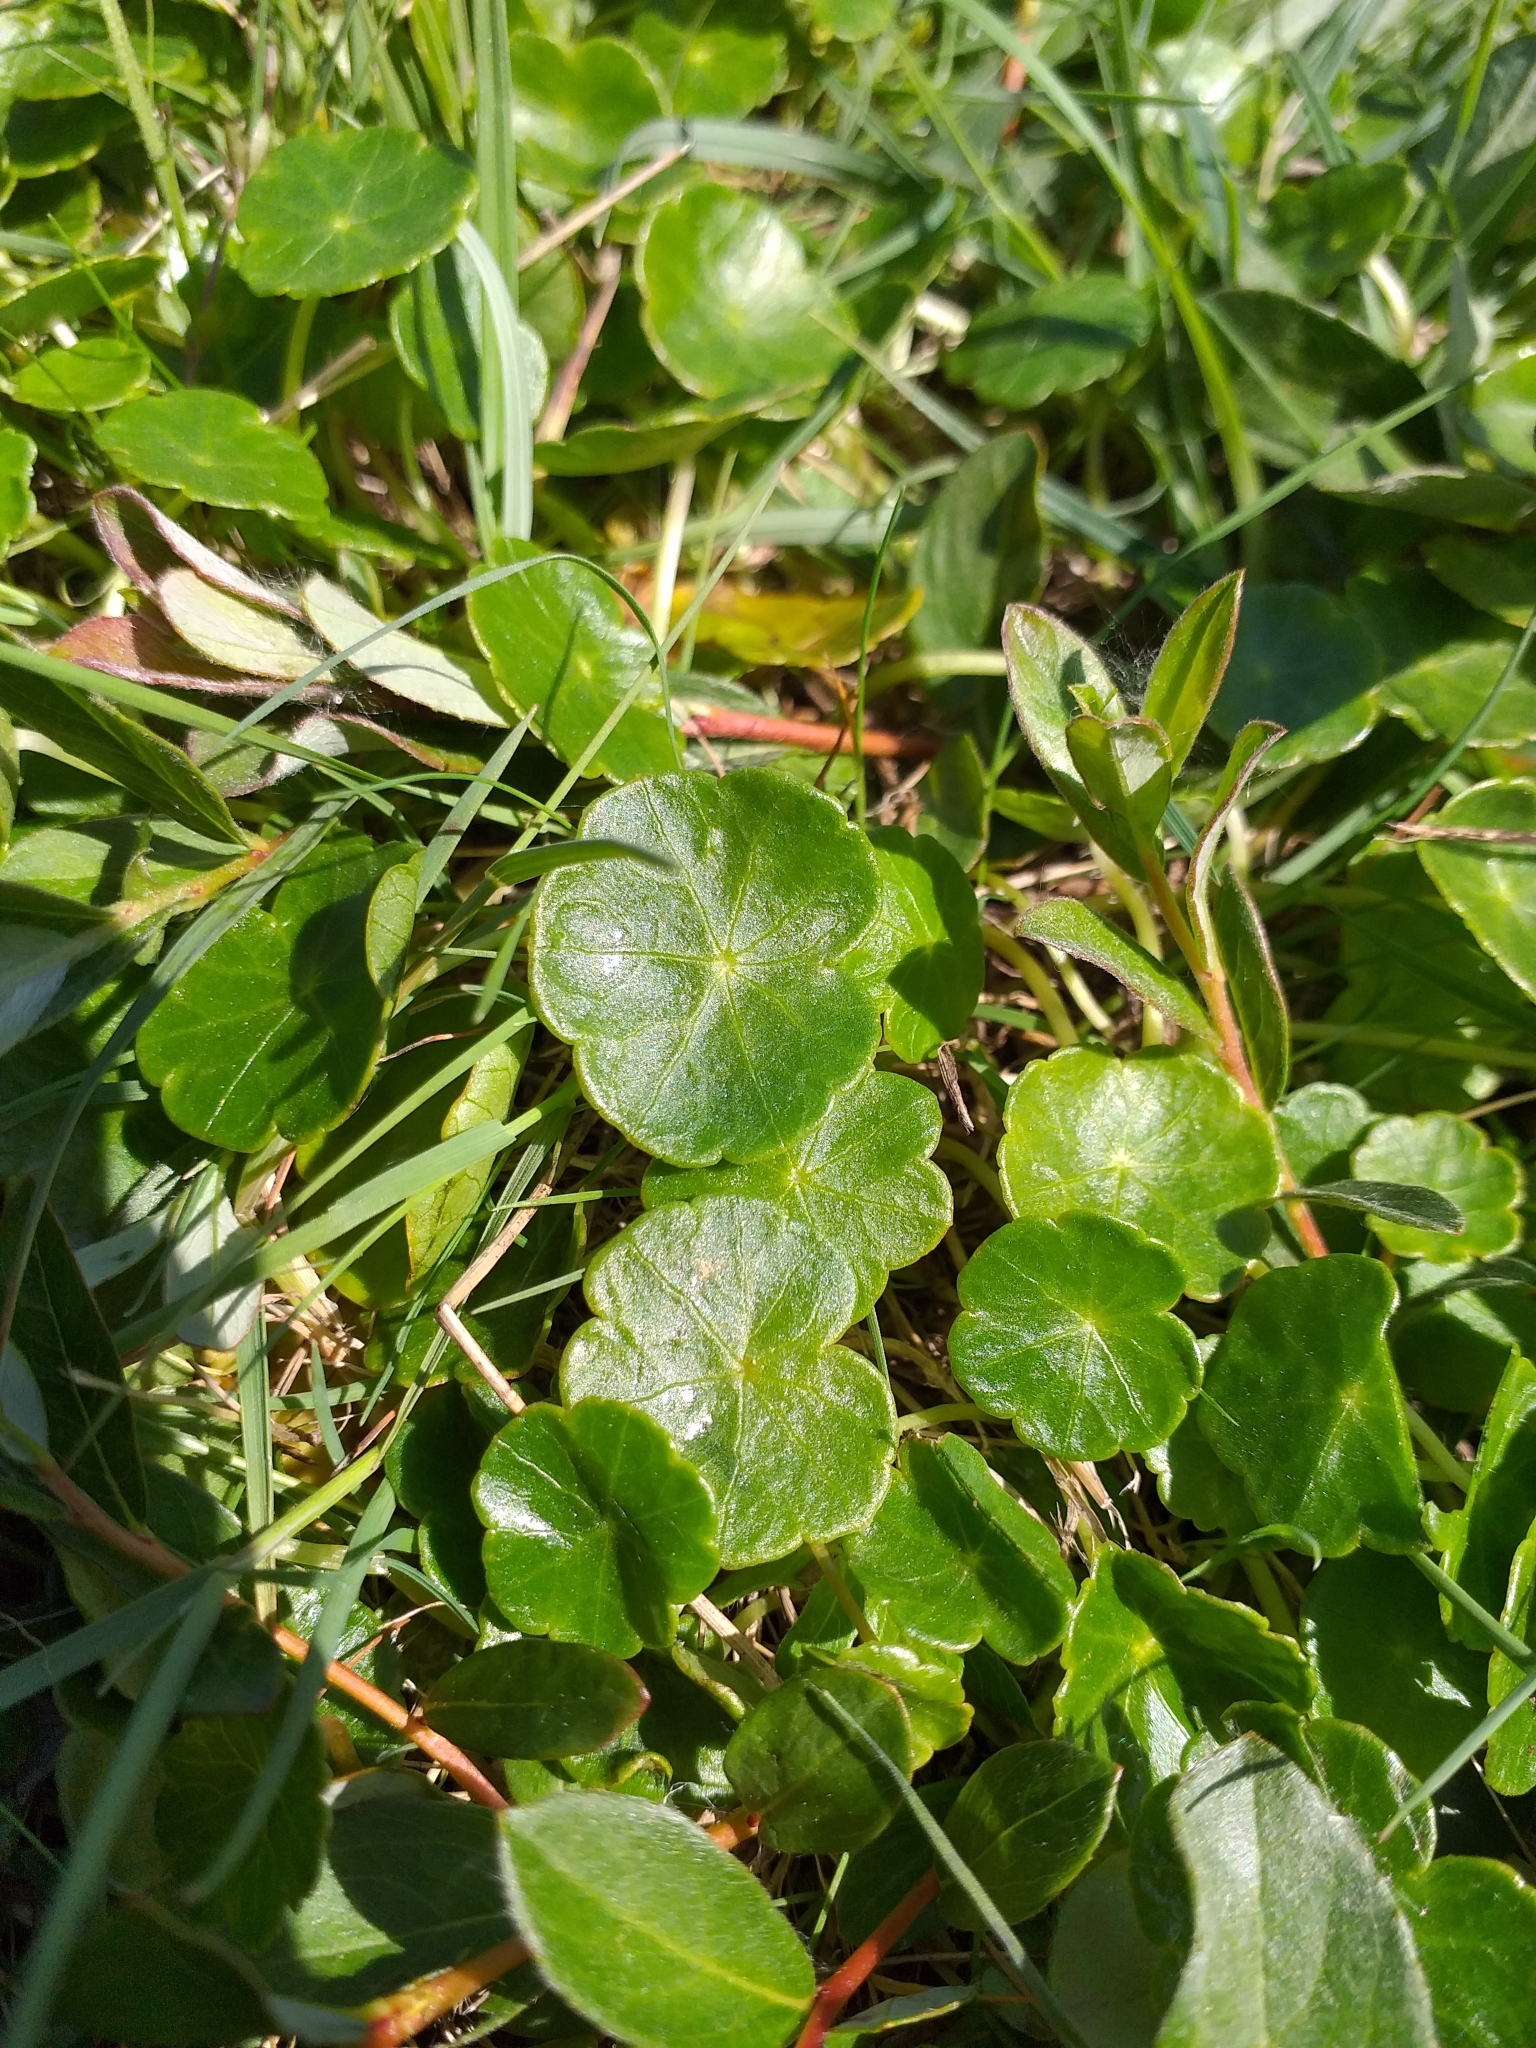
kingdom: Plantae
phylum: Tracheophyta
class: Magnoliopsida
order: Apiales
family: Araliaceae
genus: Hydrocotyle
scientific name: Hydrocotyle vulgaris
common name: Marsh pennywort
